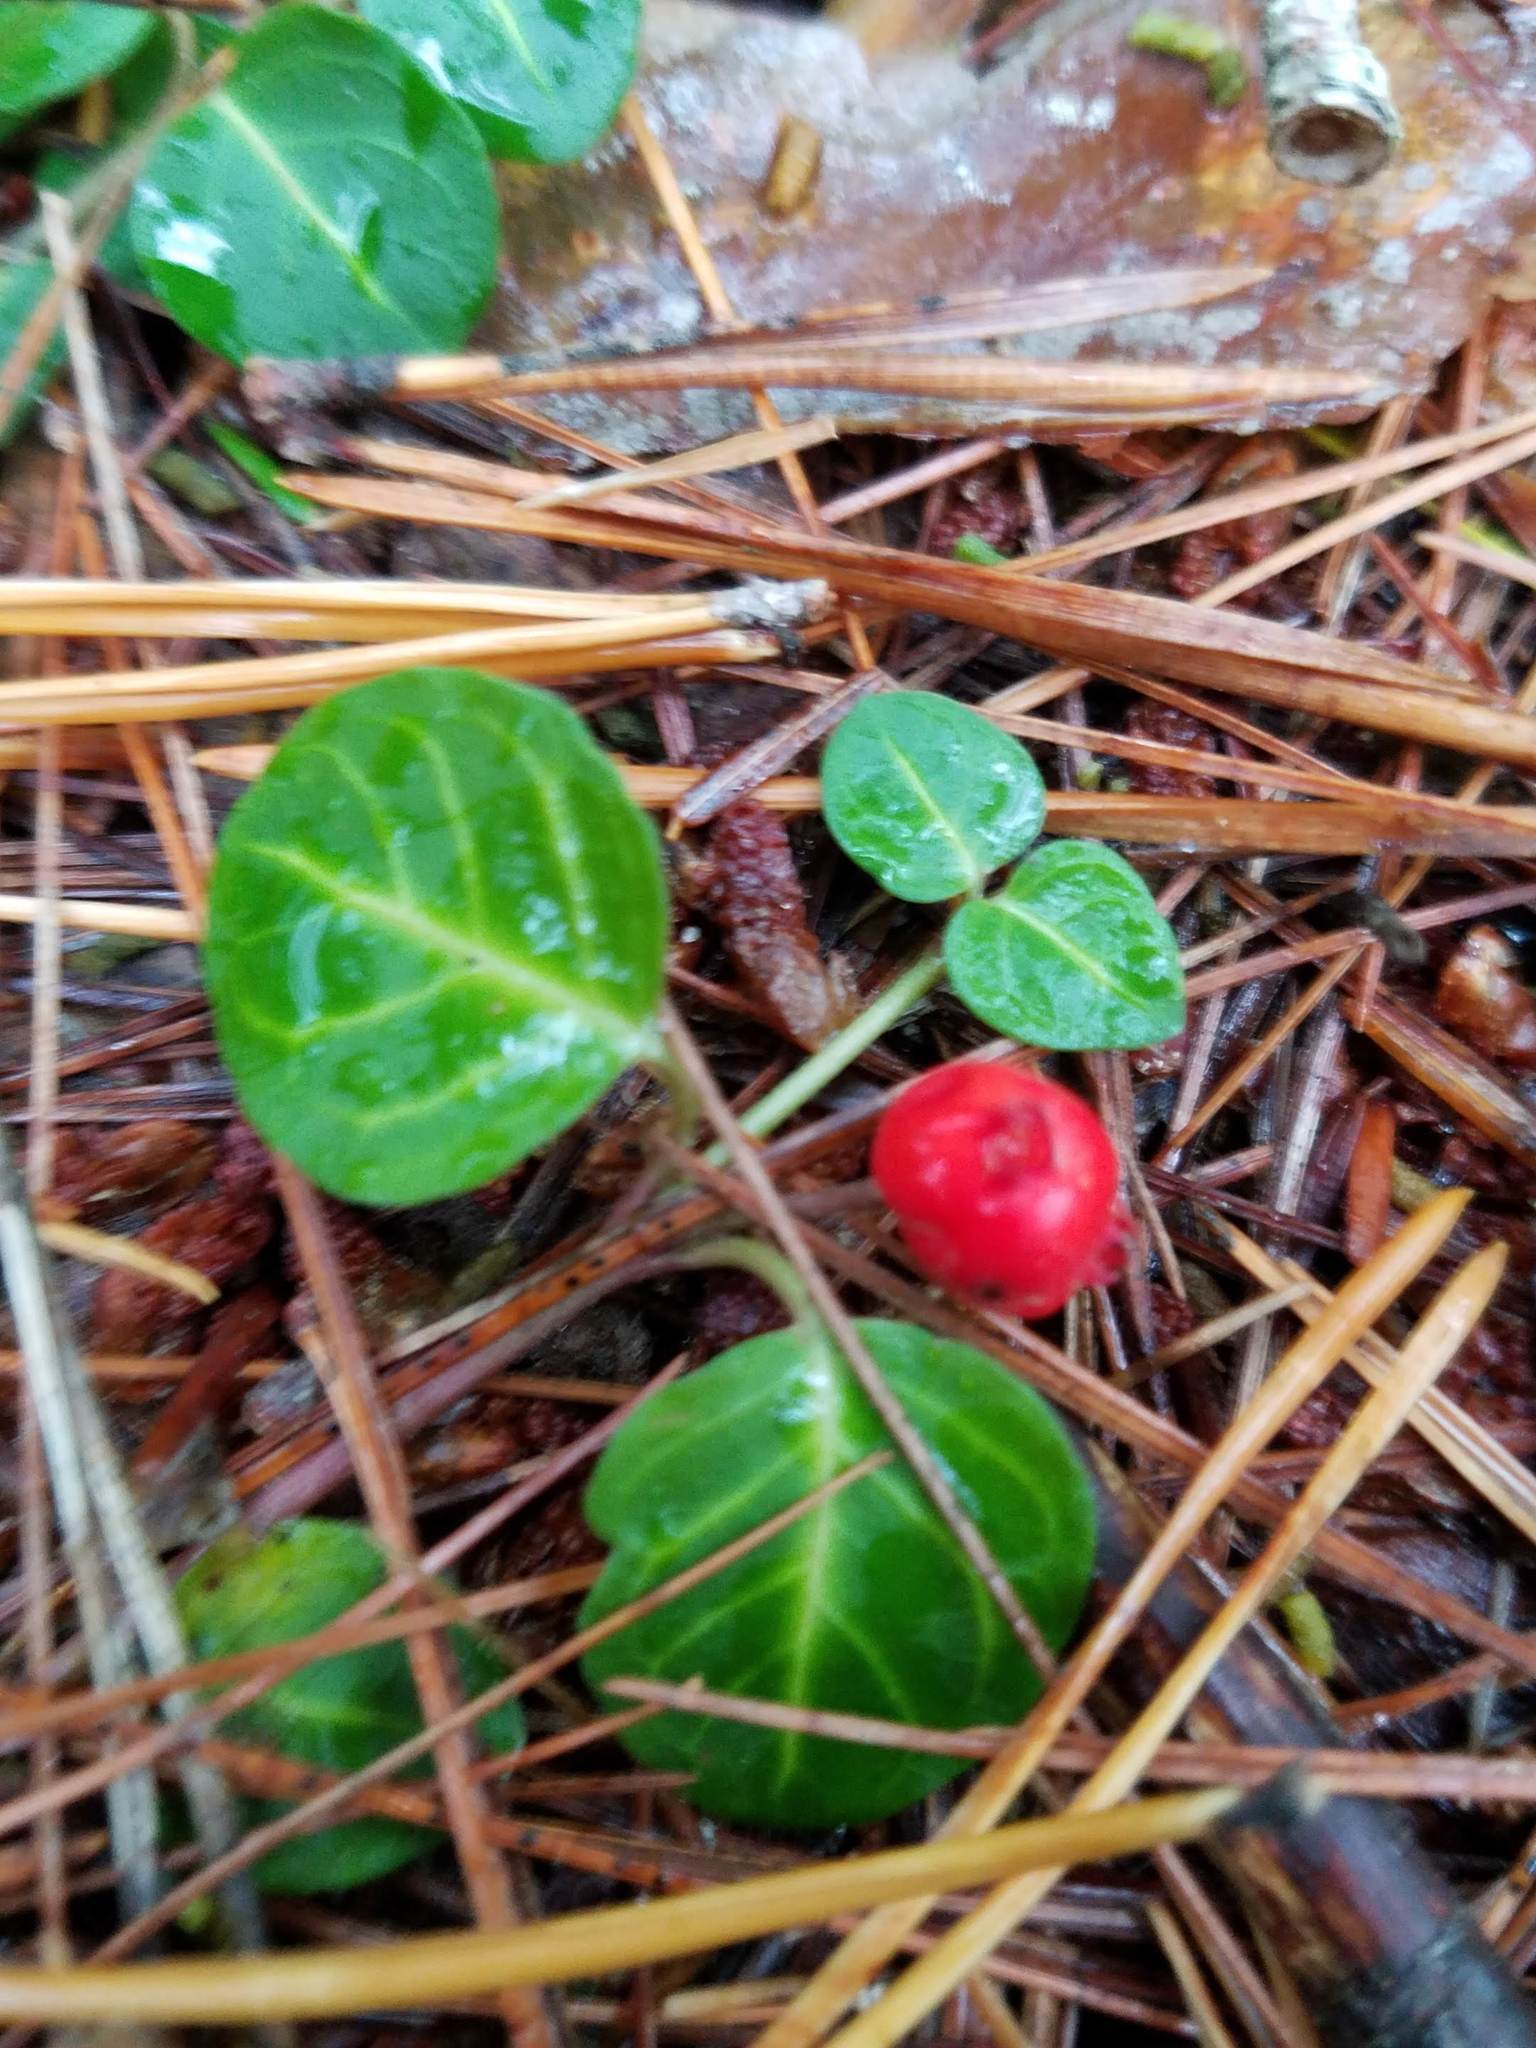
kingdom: Plantae
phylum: Tracheophyta
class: Magnoliopsida
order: Gentianales
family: Rubiaceae
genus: Mitchella
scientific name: Mitchella repens
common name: Partridge-berry
